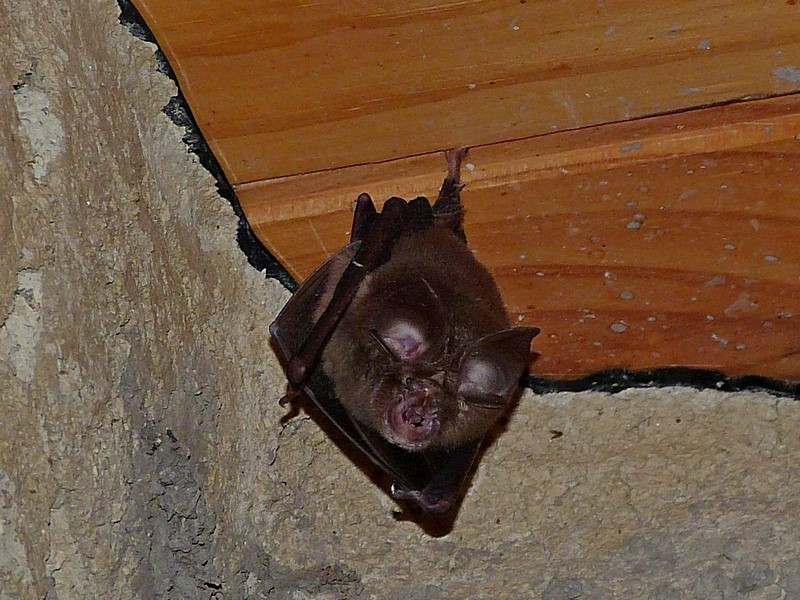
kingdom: Animalia
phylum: Chordata
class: Mammalia
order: Chiroptera
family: Rhinolophidae
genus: Rhinolophus
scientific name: Rhinolophus megaphyllus
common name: Smaller horseshoe bat
